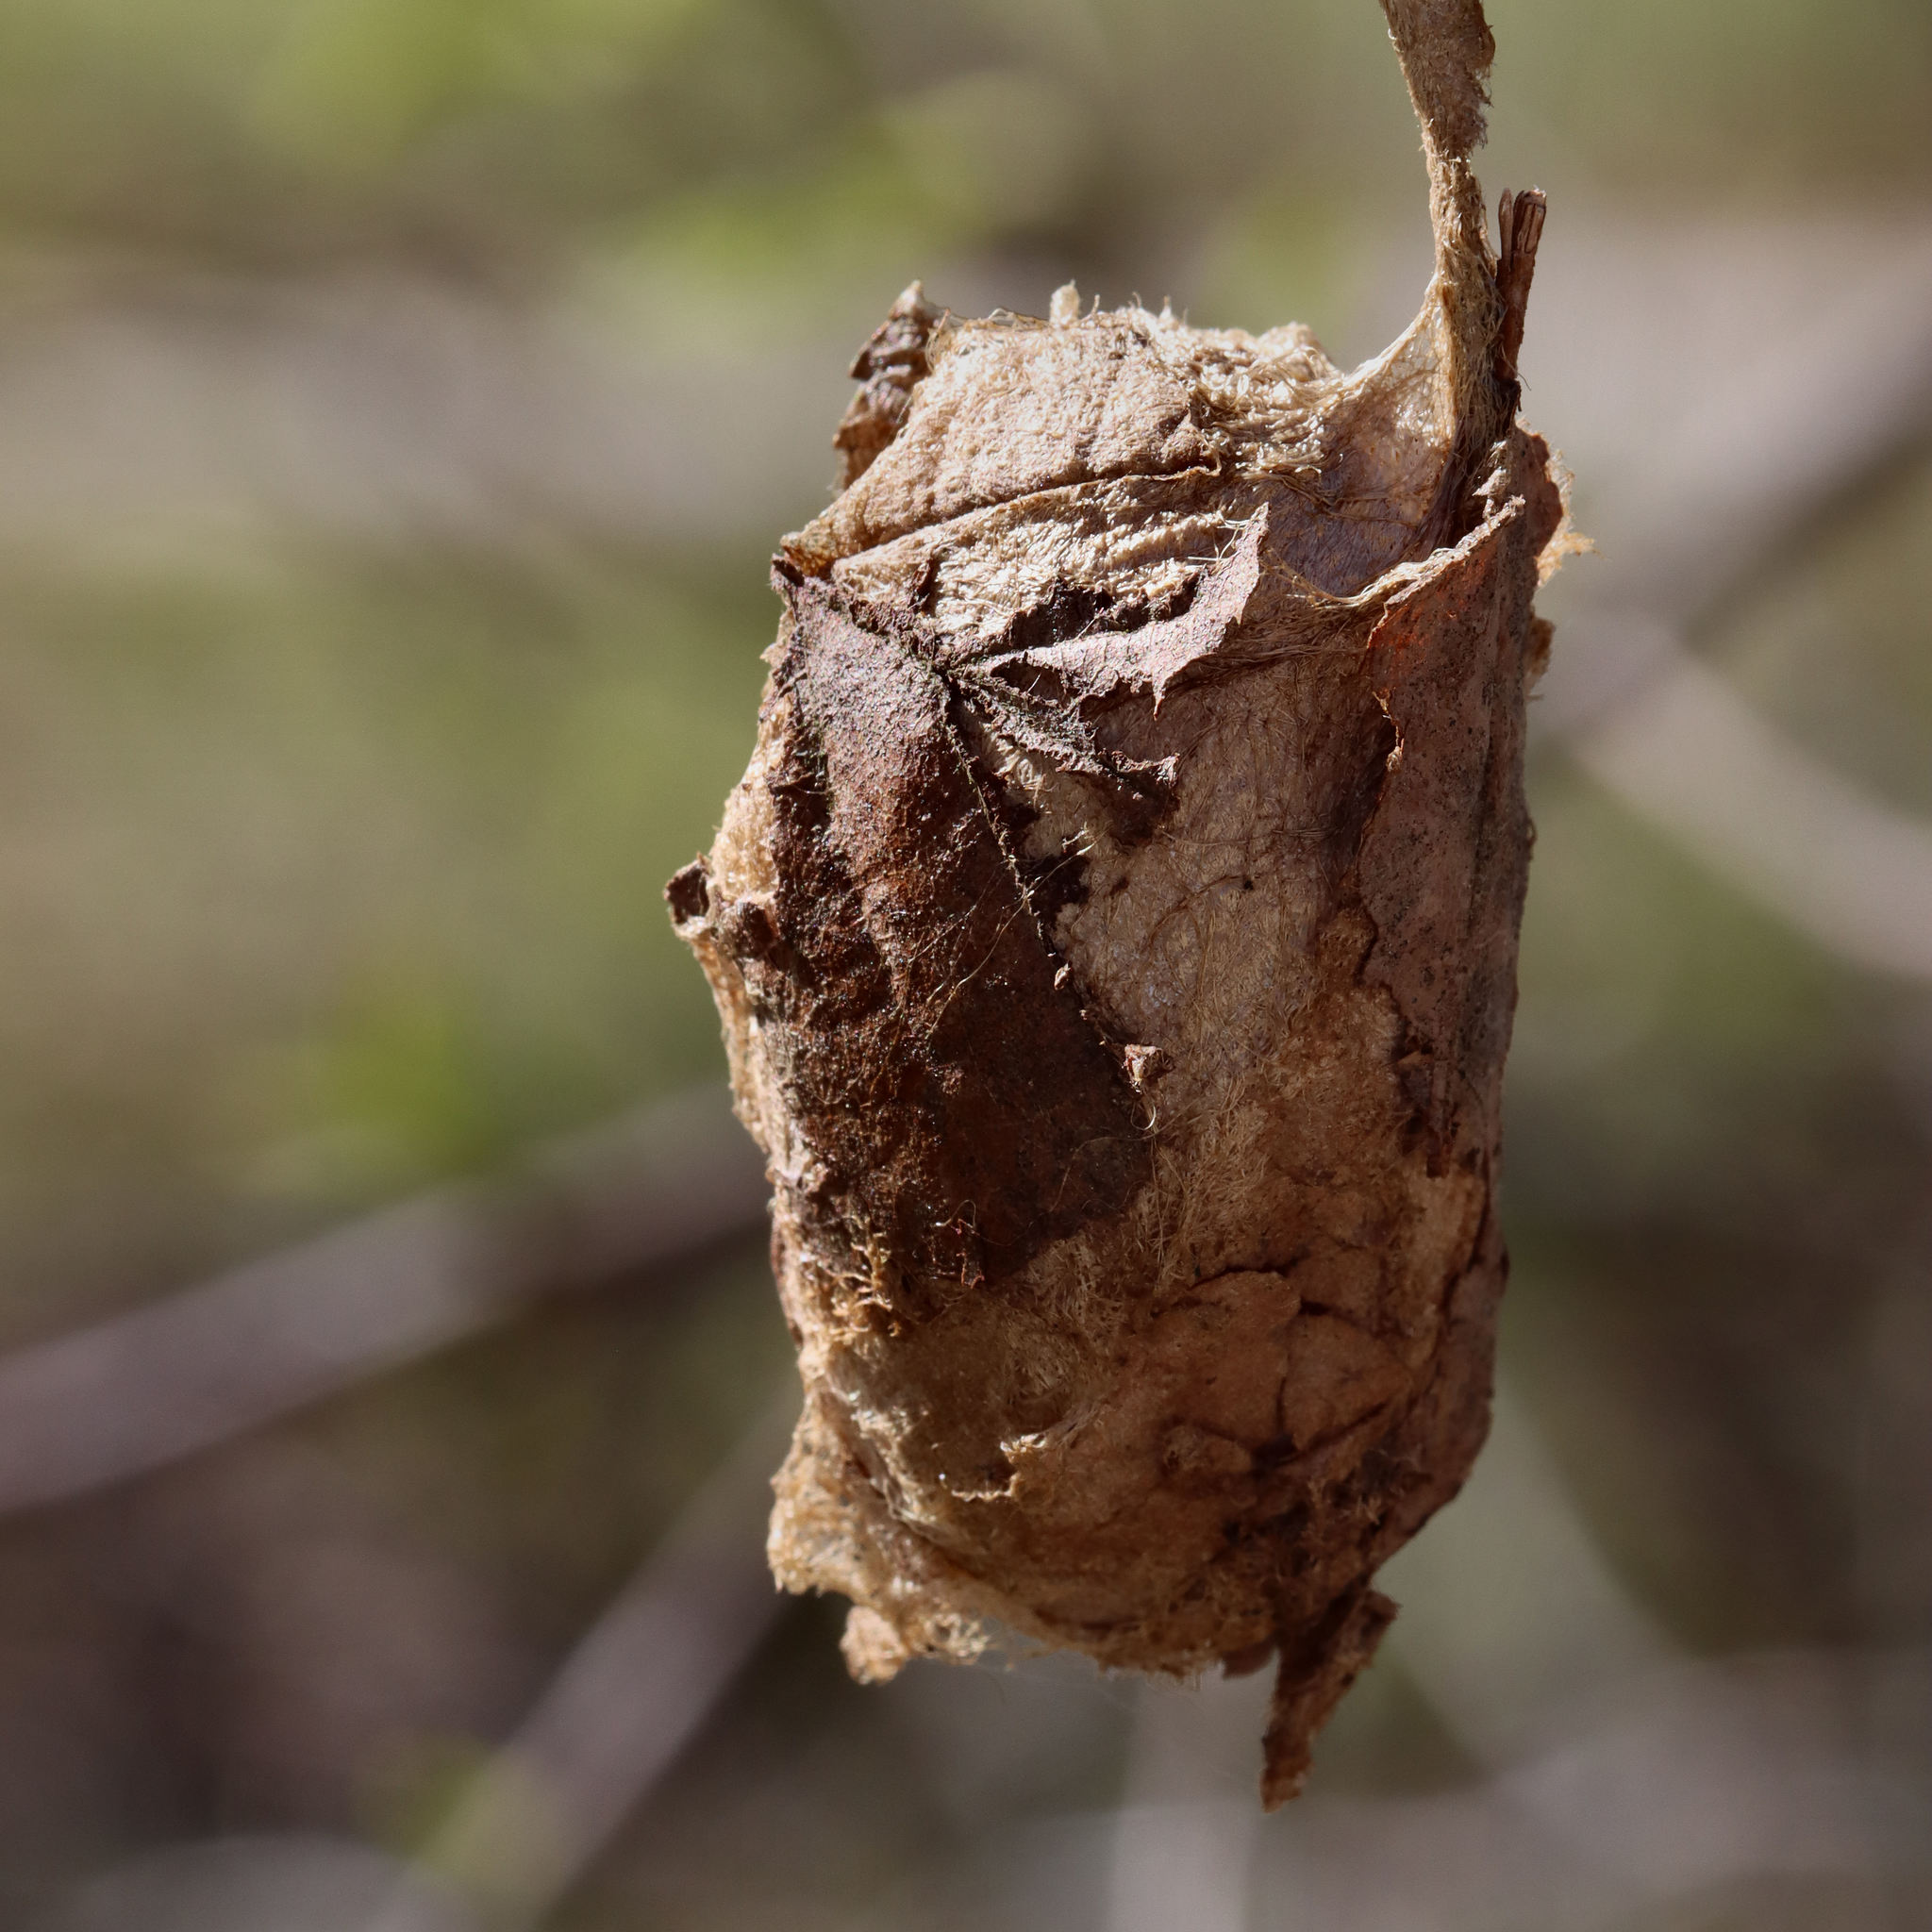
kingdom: Animalia
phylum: Arthropoda
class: Insecta
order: Lepidoptera
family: Saturniidae
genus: Antheraea
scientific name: Antheraea polyphemus
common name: Polyphemus moth
